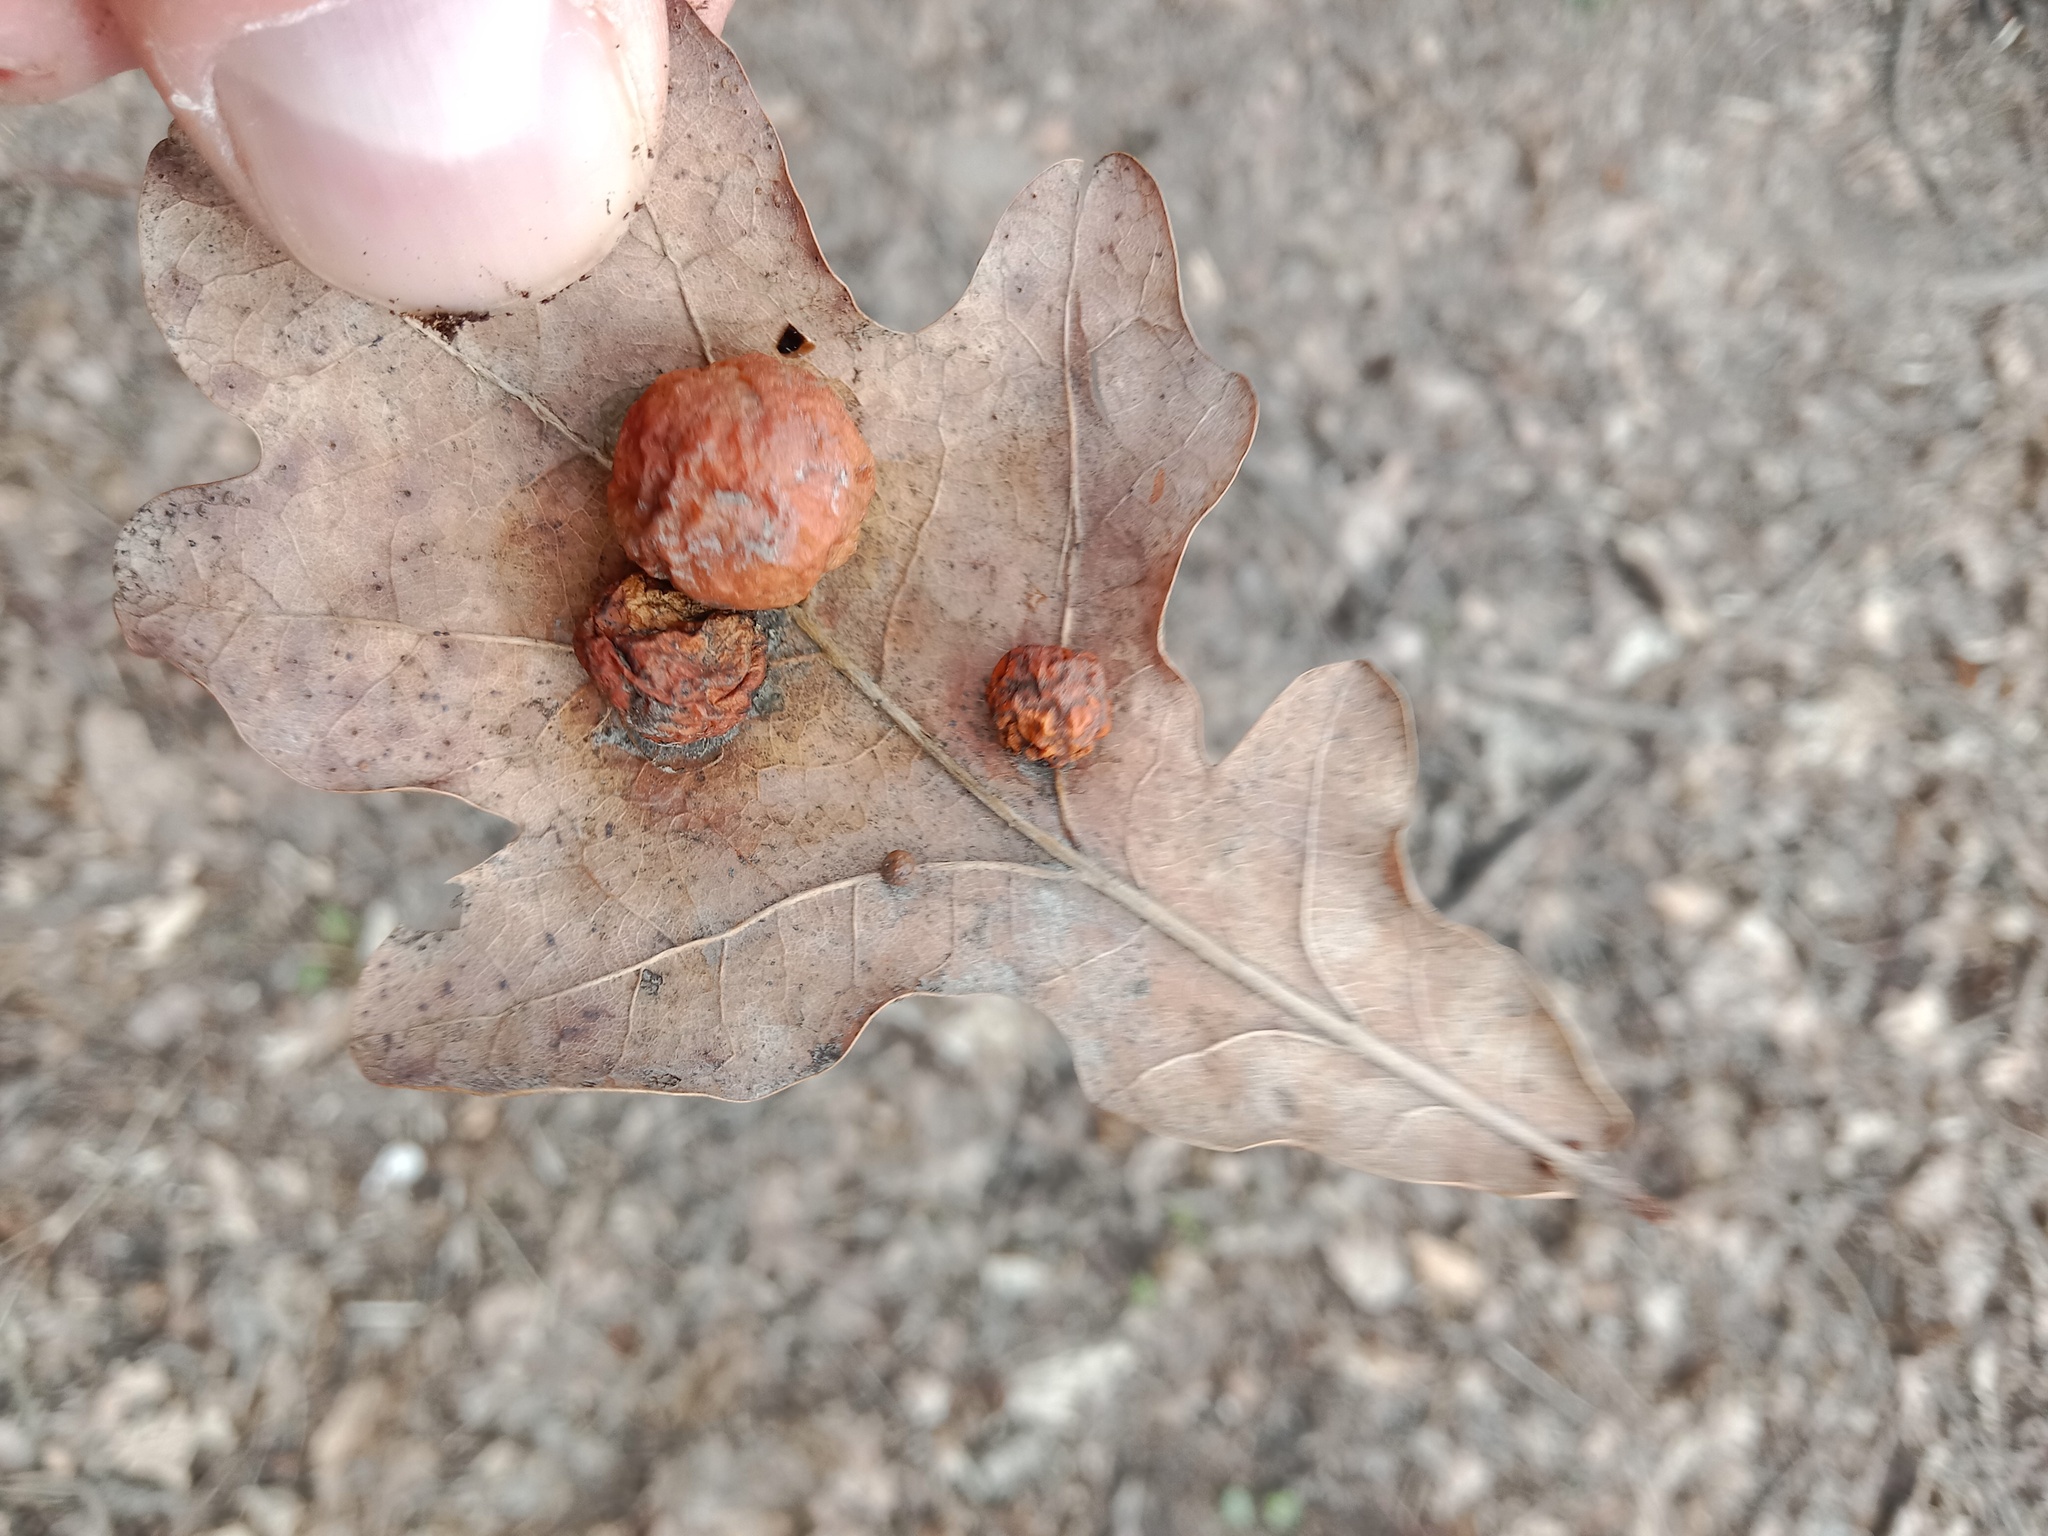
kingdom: Animalia
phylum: Arthropoda
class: Insecta
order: Hymenoptera
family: Cynipidae
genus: Cynips
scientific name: Cynips quercusfolii
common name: Cherry gall
